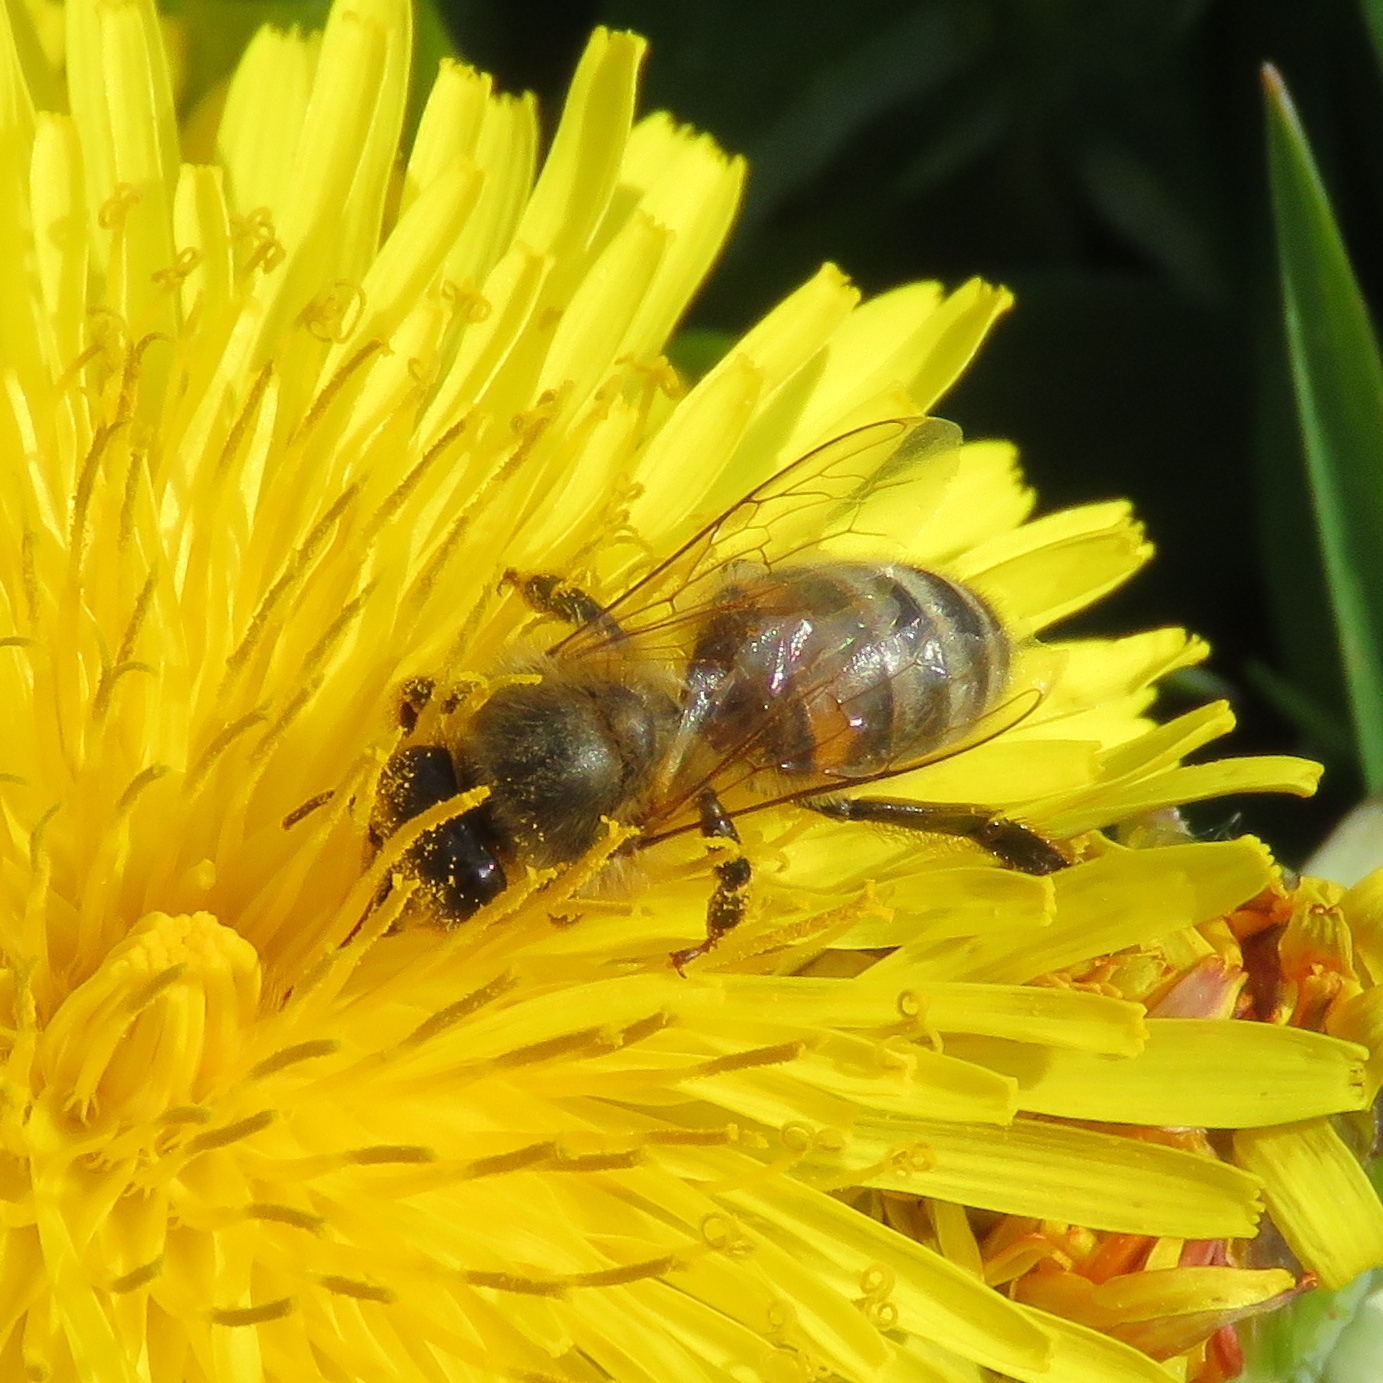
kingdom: Animalia
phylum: Arthropoda
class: Insecta
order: Hymenoptera
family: Apidae
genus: Apis
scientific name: Apis mellifera
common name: Honey bee
